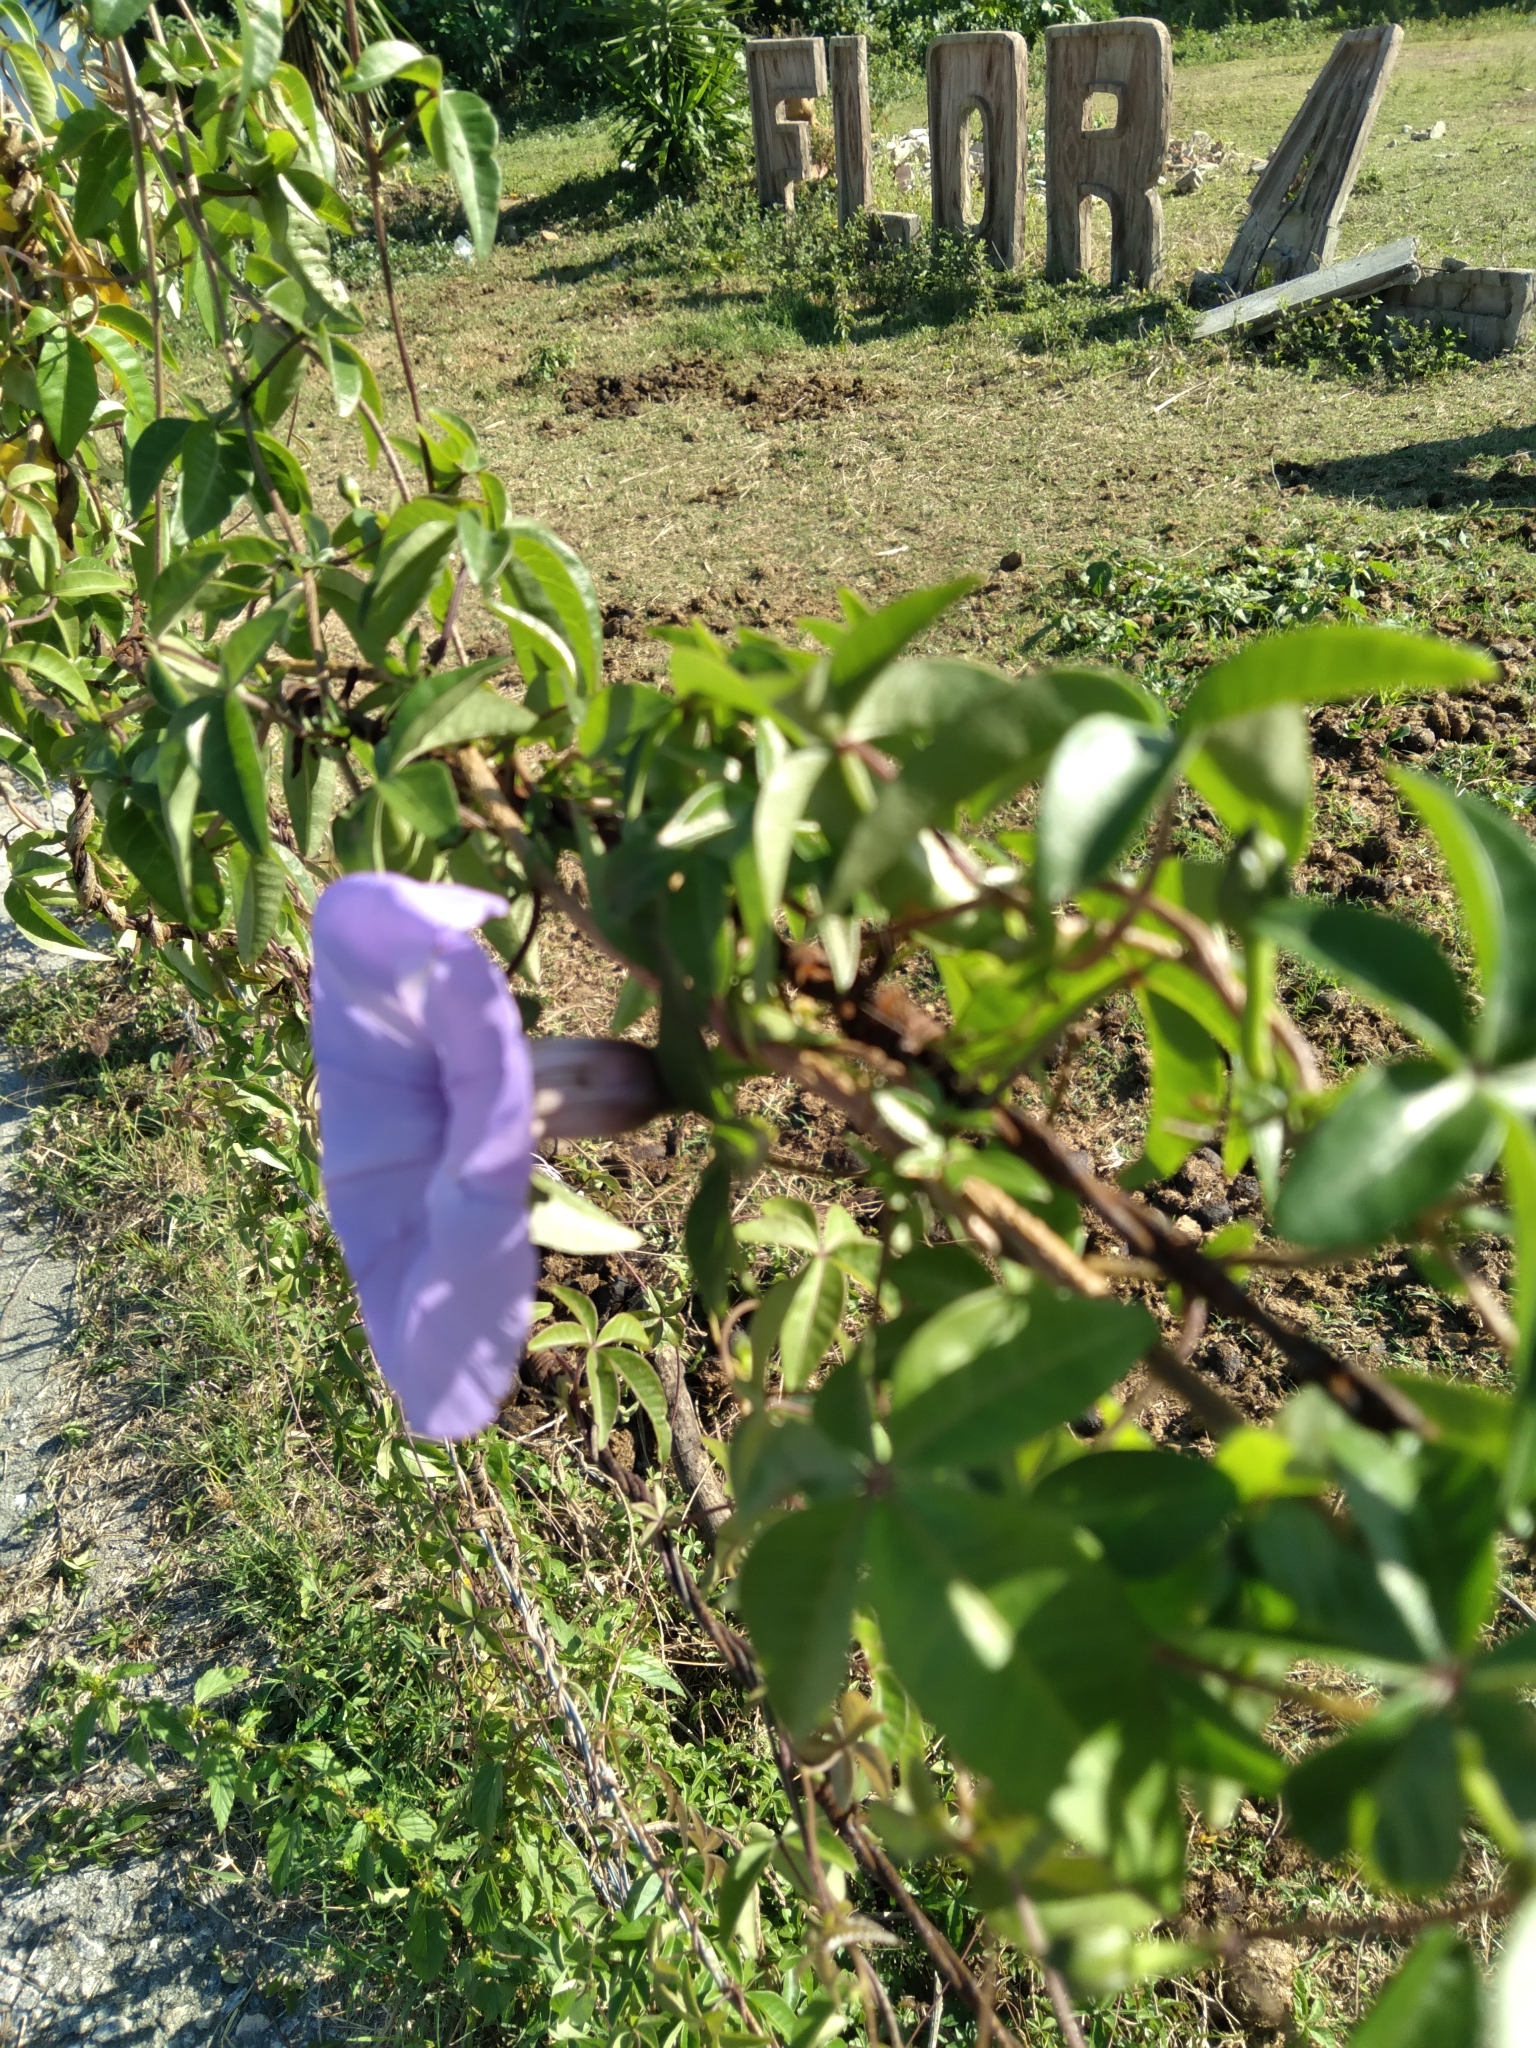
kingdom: Plantae
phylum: Tracheophyta
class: Magnoliopsida
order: Solanales
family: Convolvulaceae
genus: Ipomoea
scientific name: Ipomoea cairica
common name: Mile a minute vine
